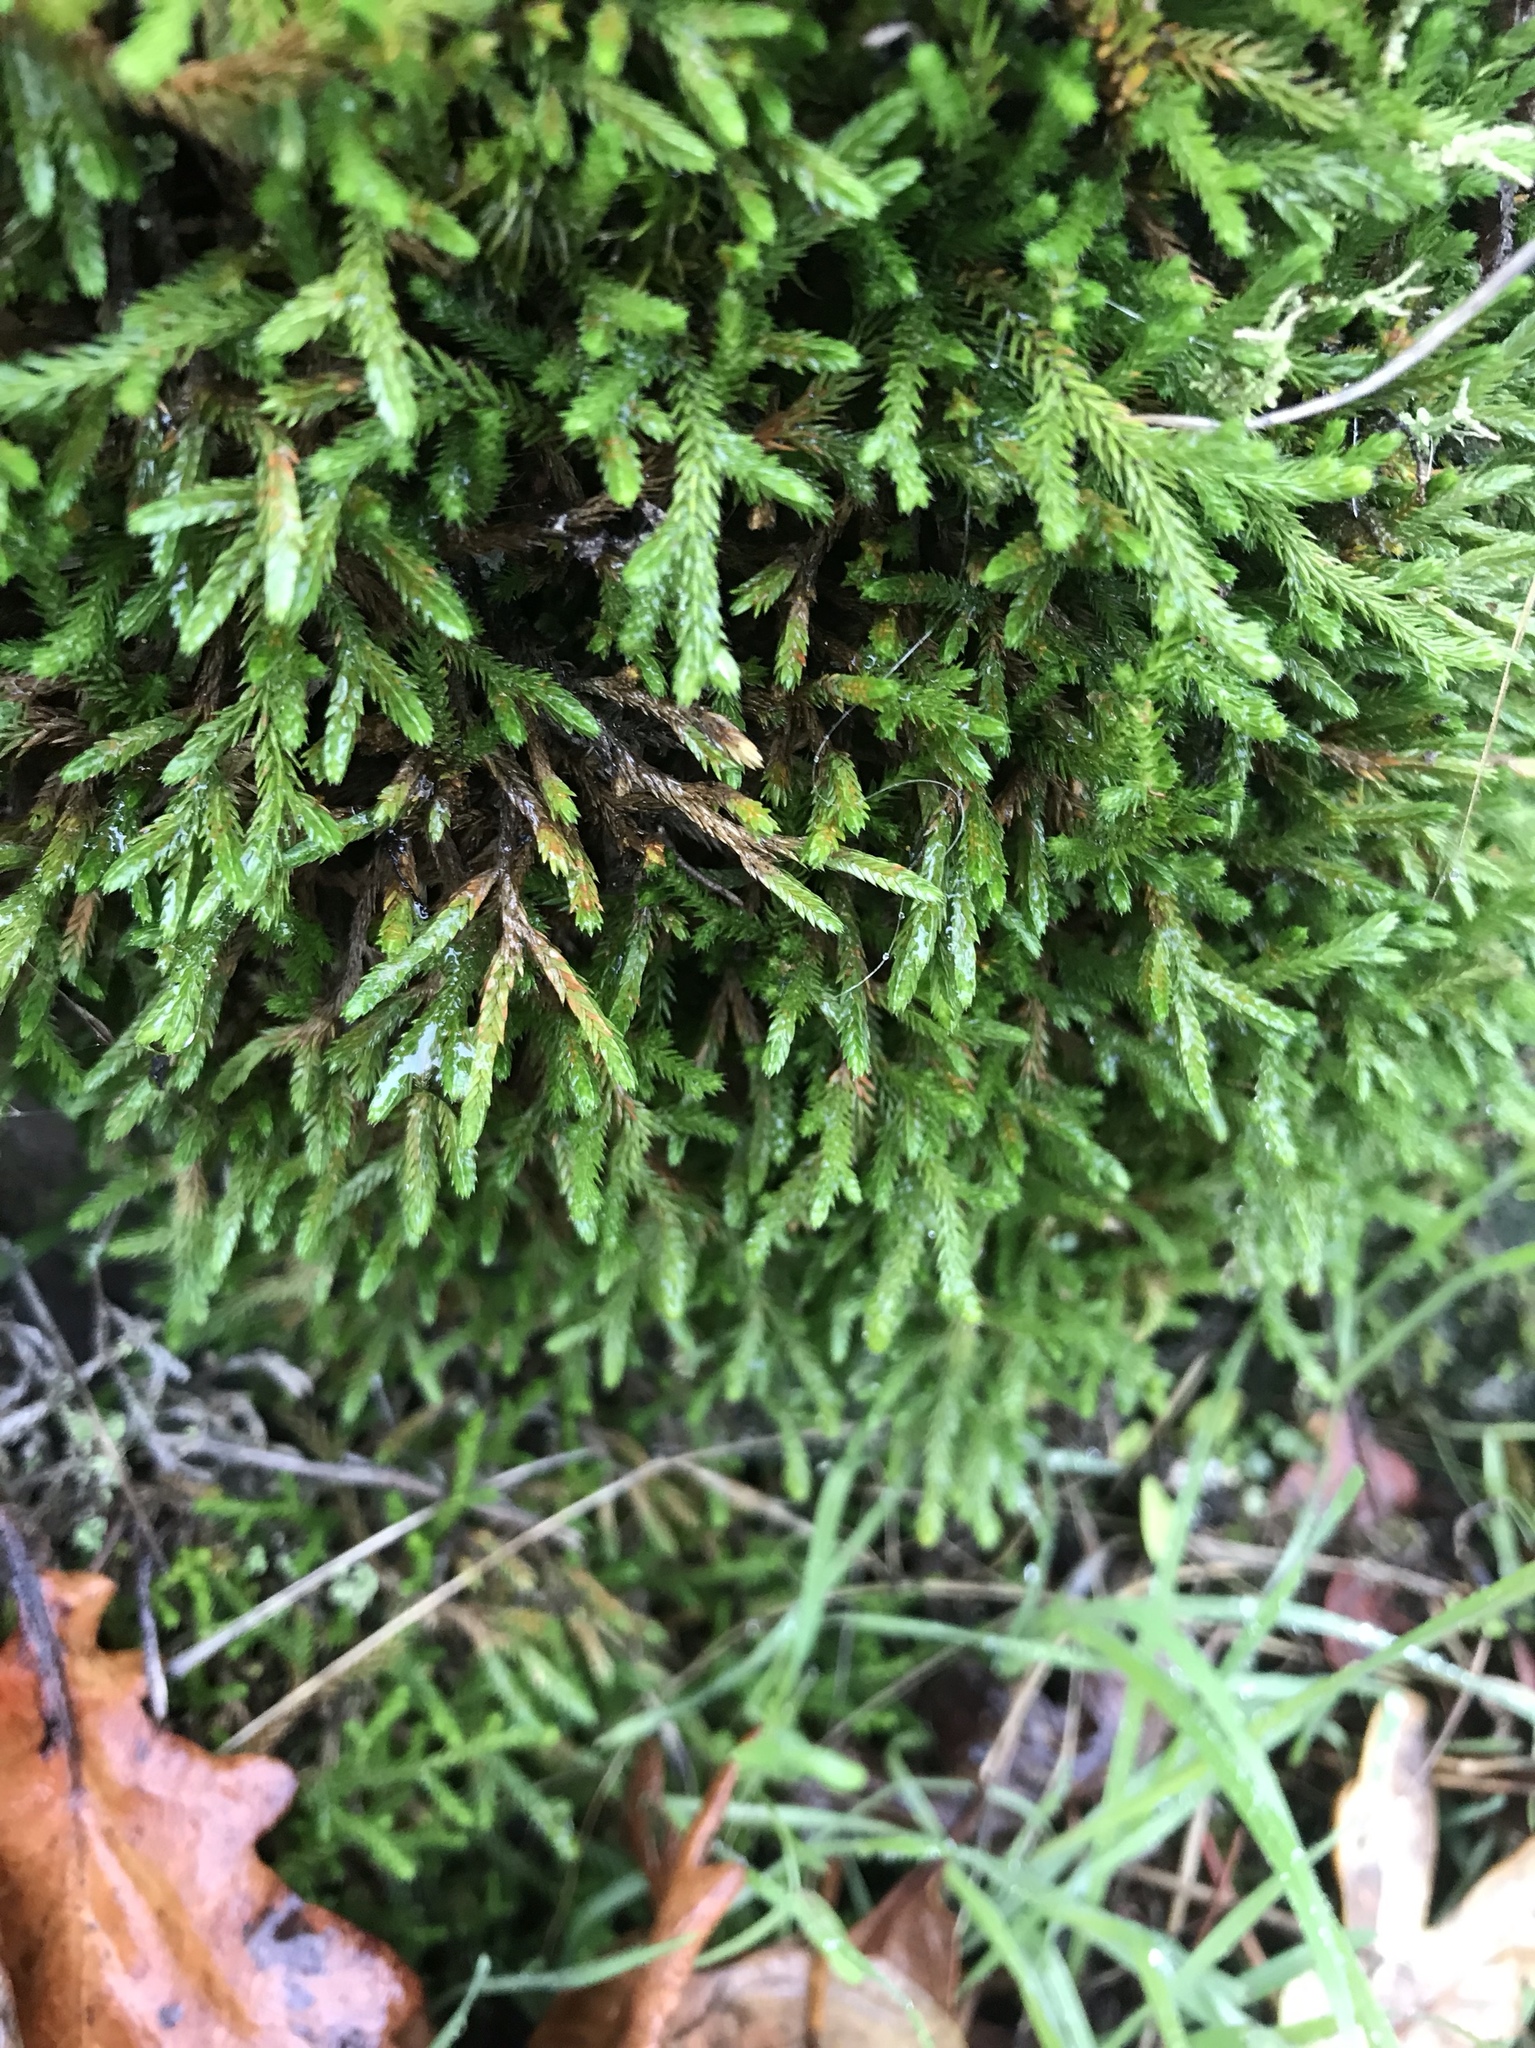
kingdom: Plantae
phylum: Tracheophyta
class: Lycopodiopsida
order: Selaginellales
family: Selaginellaceae
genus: Selaginella
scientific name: Selaginella wallacei
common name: Wallace's selaginella
